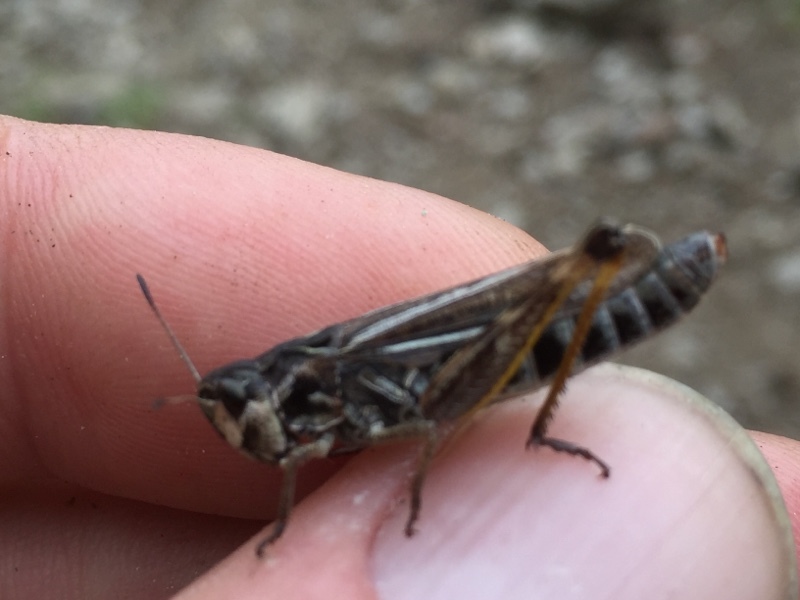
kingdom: Animalia
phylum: Arthropoda
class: Insecta
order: Orthoptera
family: Acrididae
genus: Gomphocerus
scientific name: Gomphocerus sibiricus
